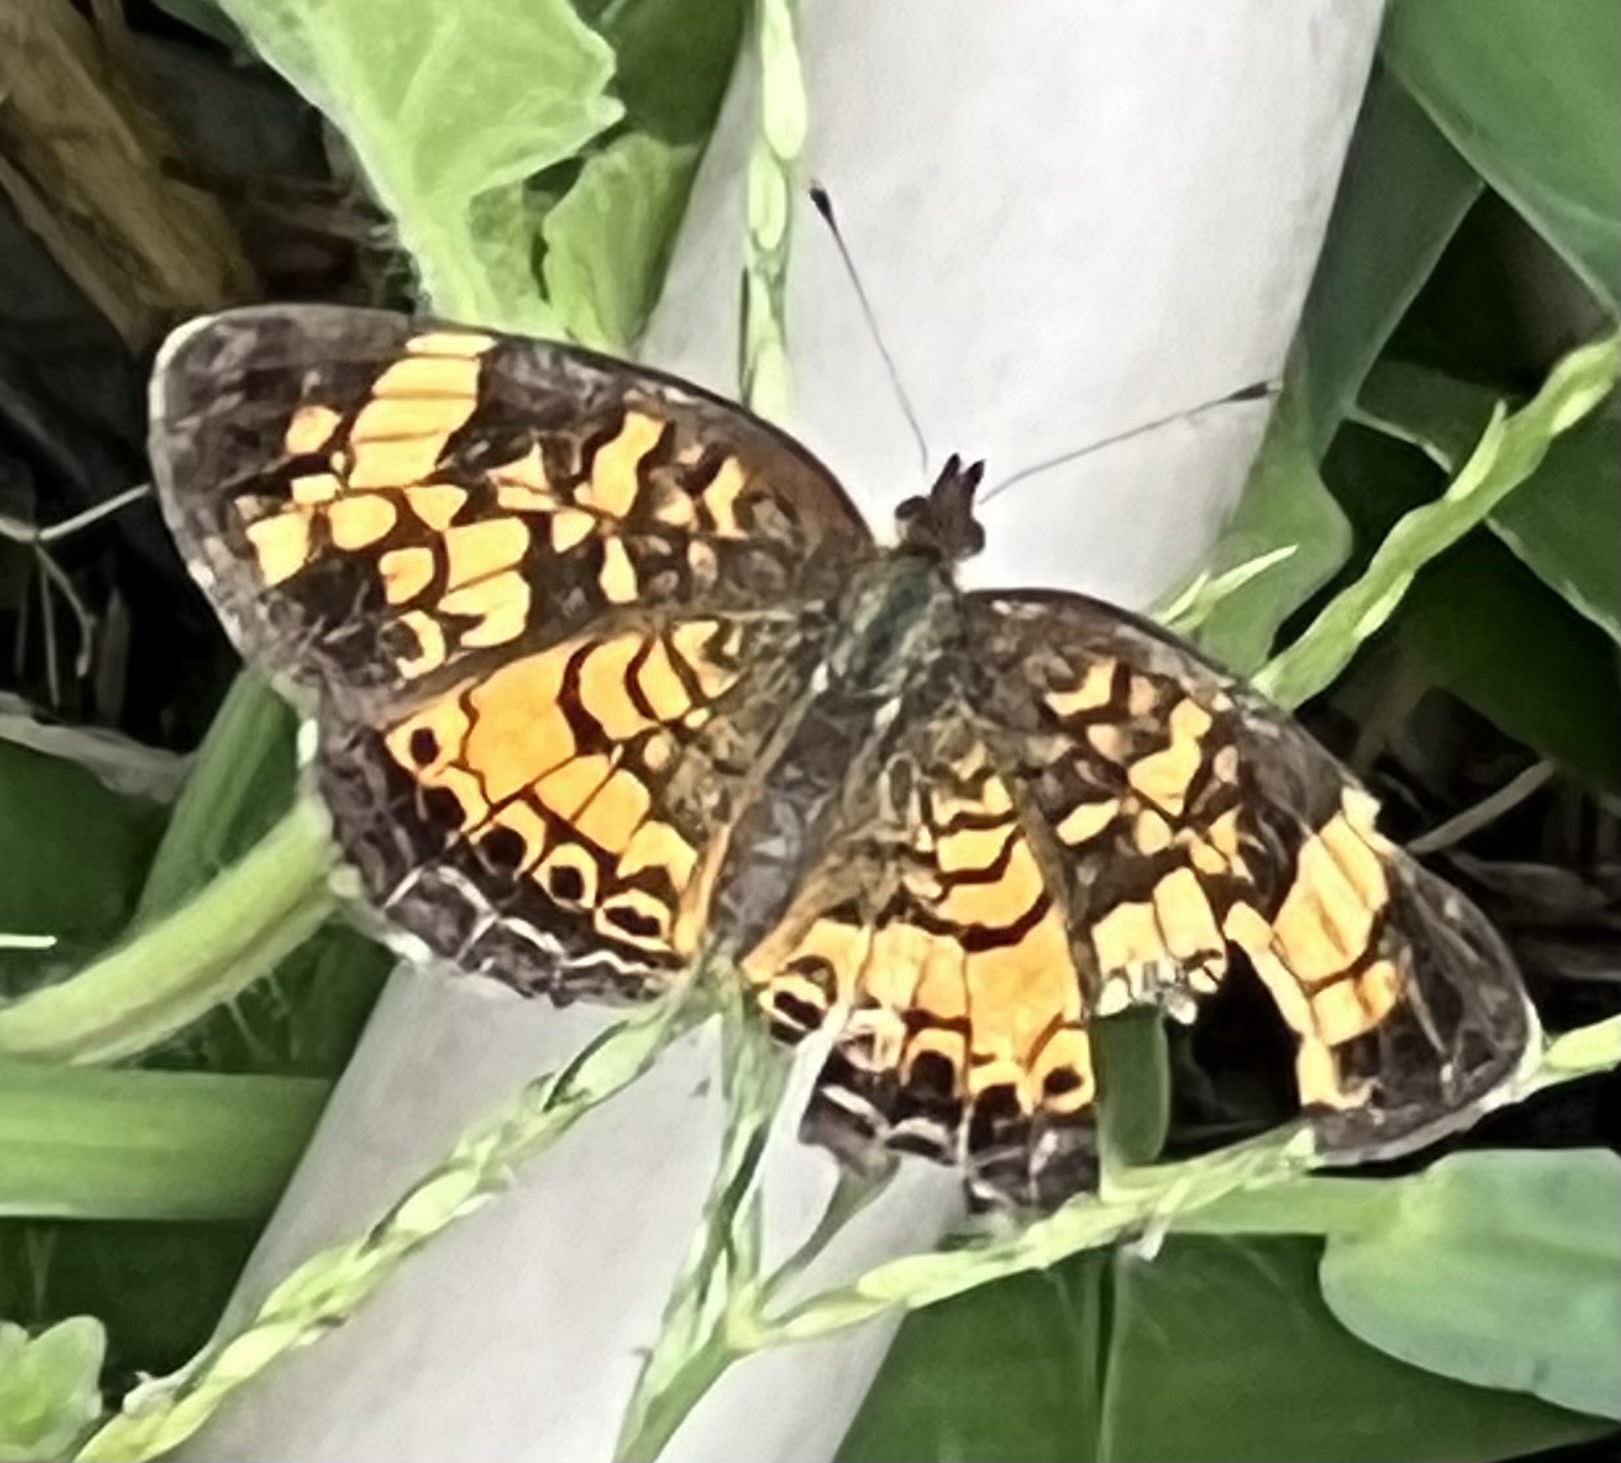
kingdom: Animalia
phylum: Arthropoda
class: Insecta
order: Lepidoptera
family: Nymphalidae
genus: Phyciodes
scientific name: Phyciodes tharos
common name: Pearl crescent
